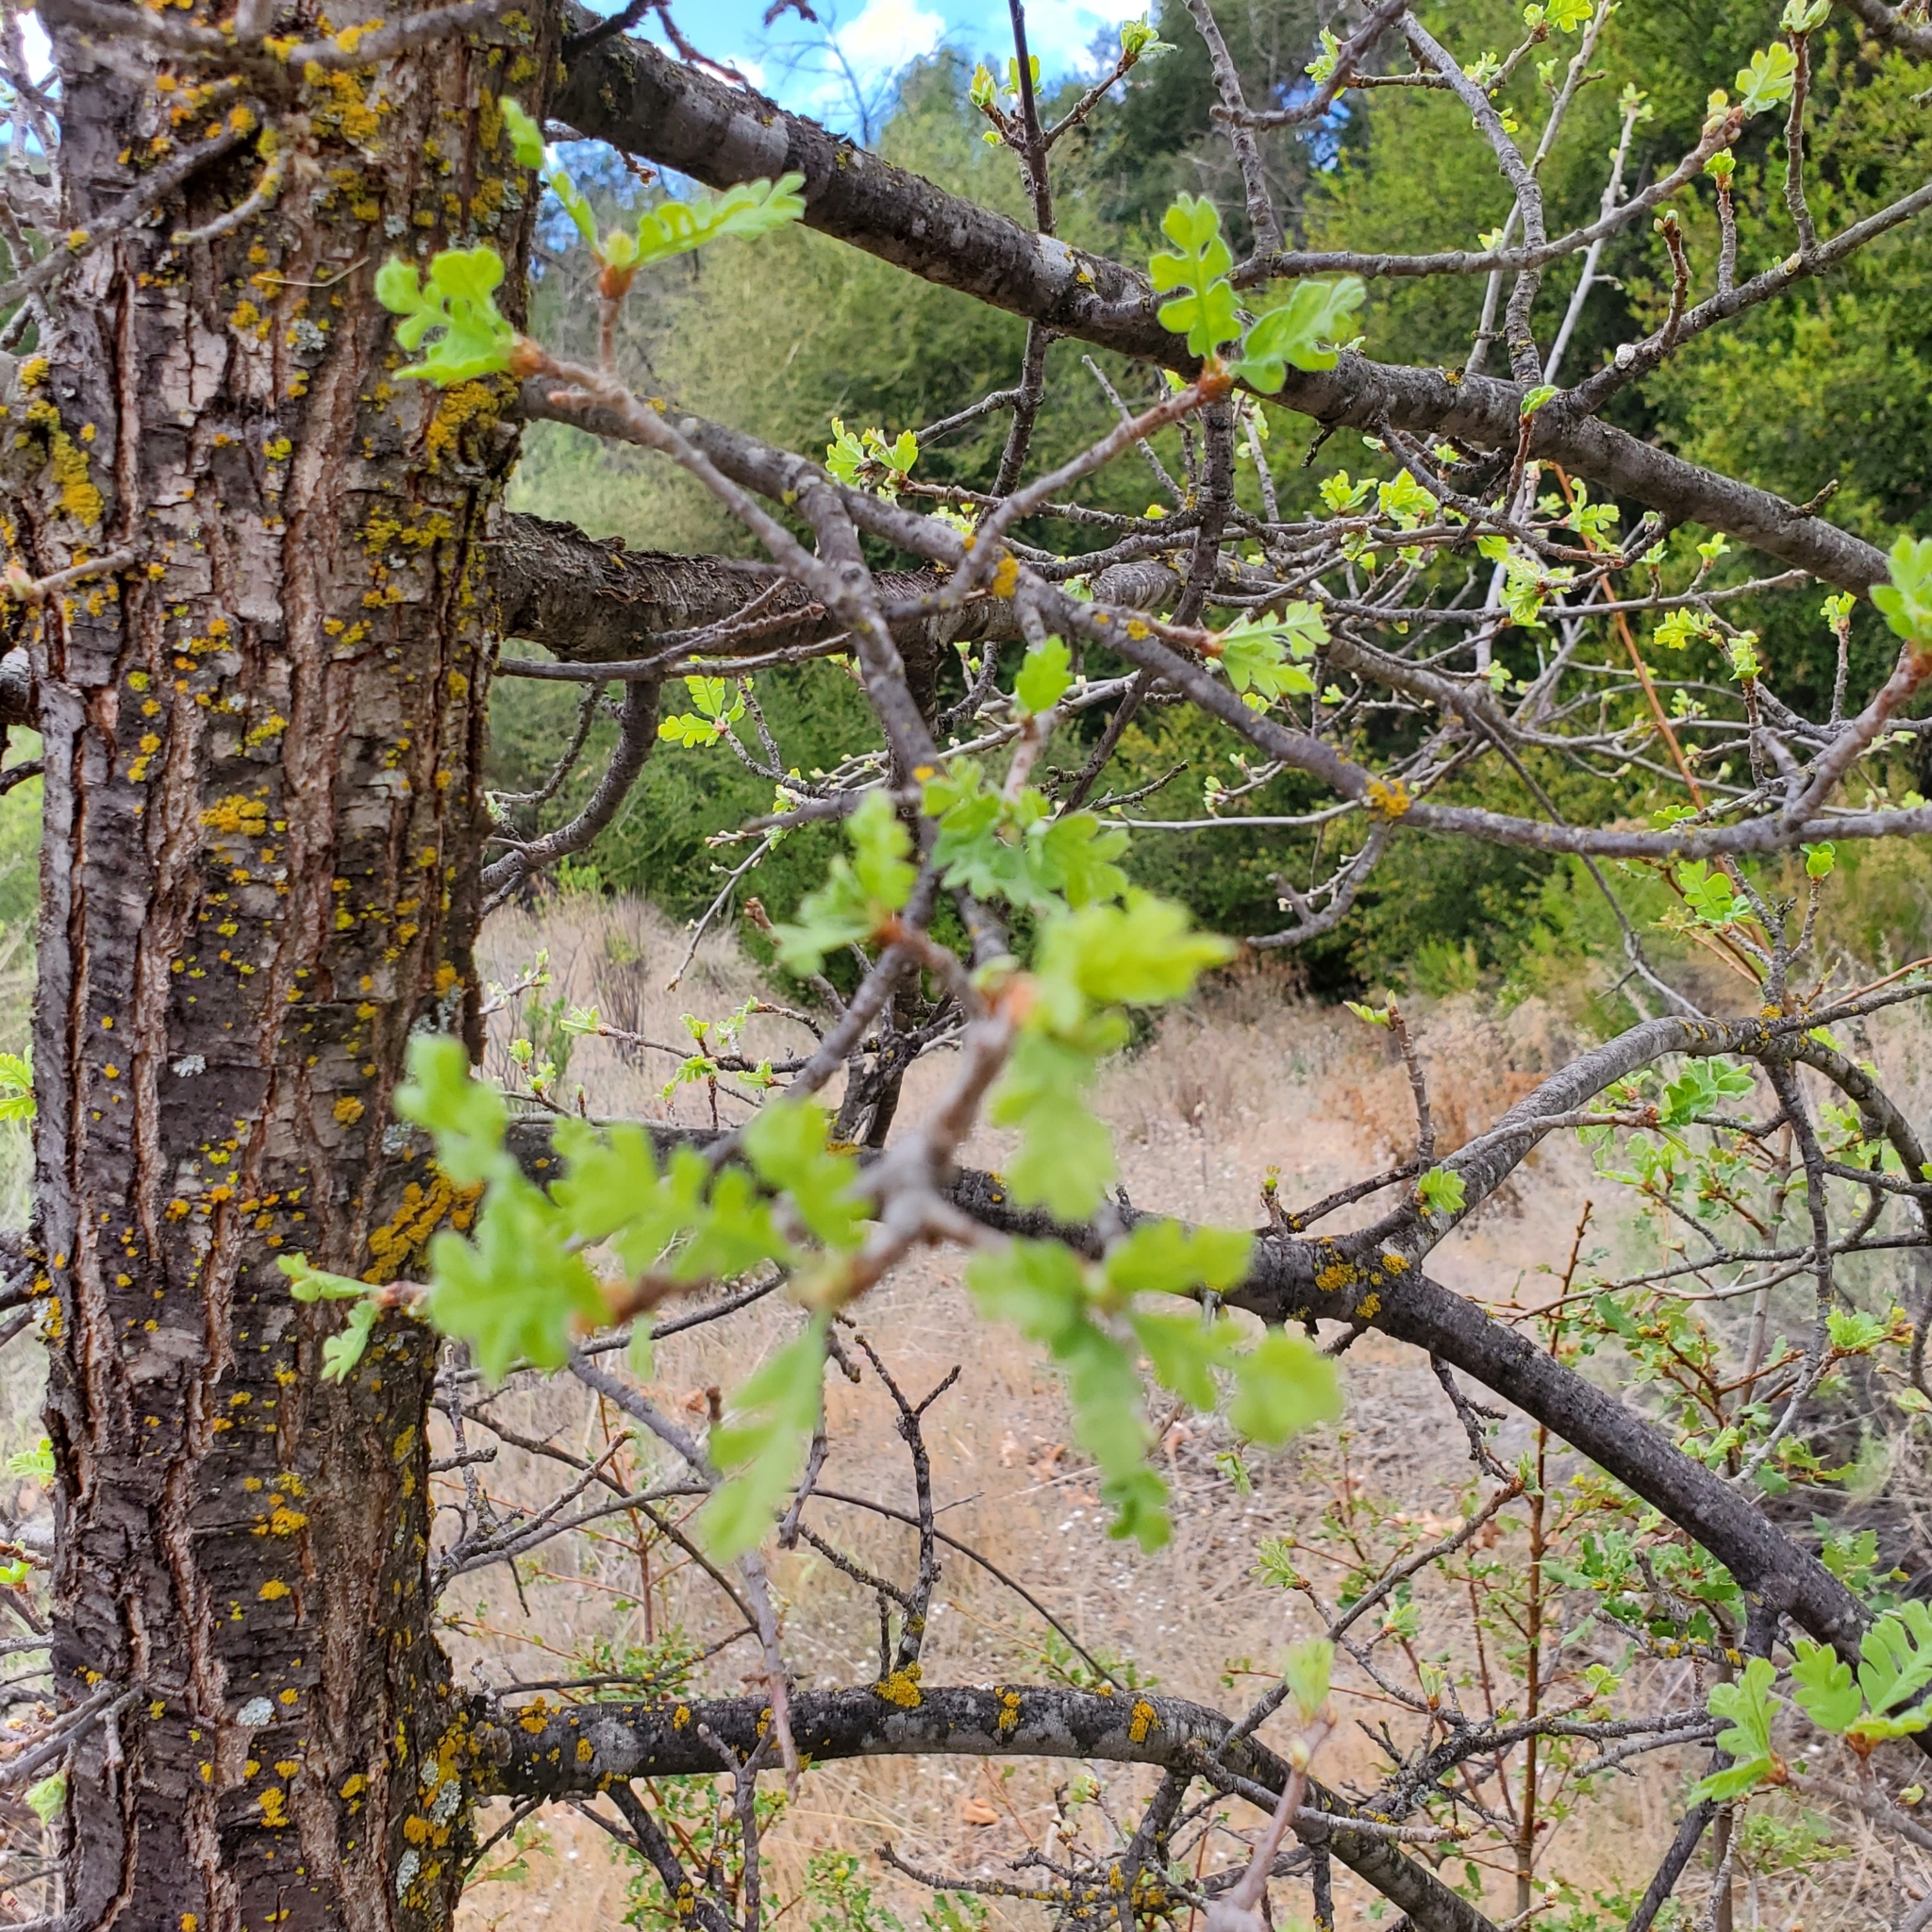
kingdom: Plantae
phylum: Tracheophyta
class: Magnoliopsida
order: Fagales
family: Fagaceae
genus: Quercus
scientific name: Quercus lobata
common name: Valley oak
